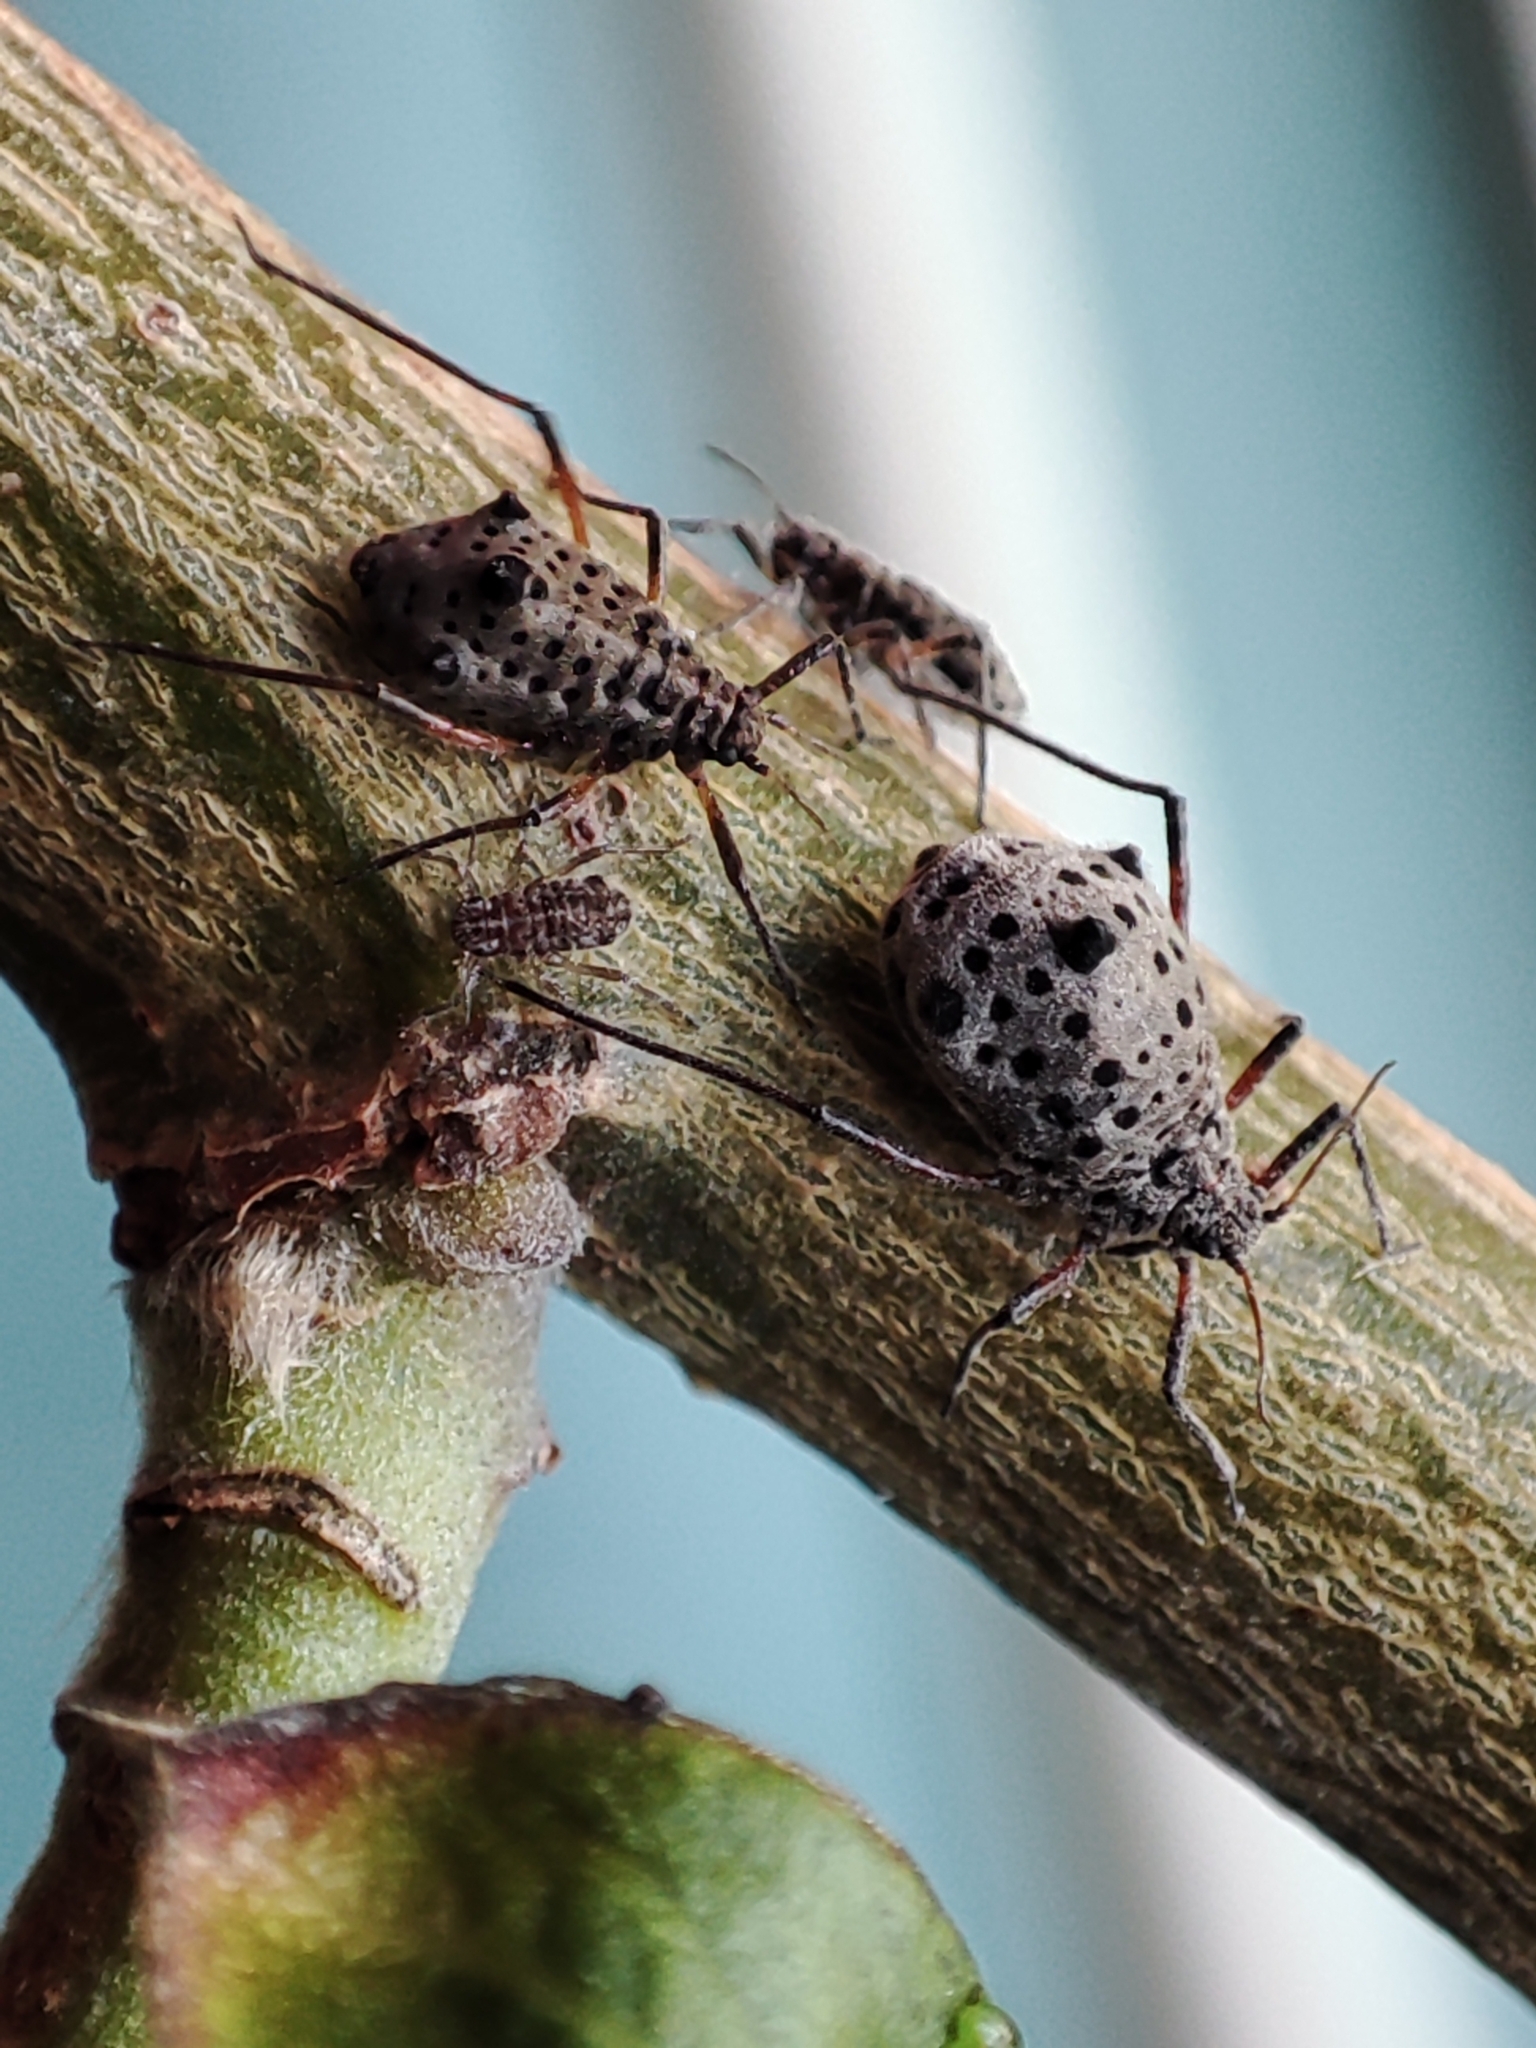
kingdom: Animalia
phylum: Arthropoda
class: Insecta
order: Hemiptera
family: Aphididae
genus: Tuberolachnus
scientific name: Tuberolachnus salignus
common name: Giant willow aphid
